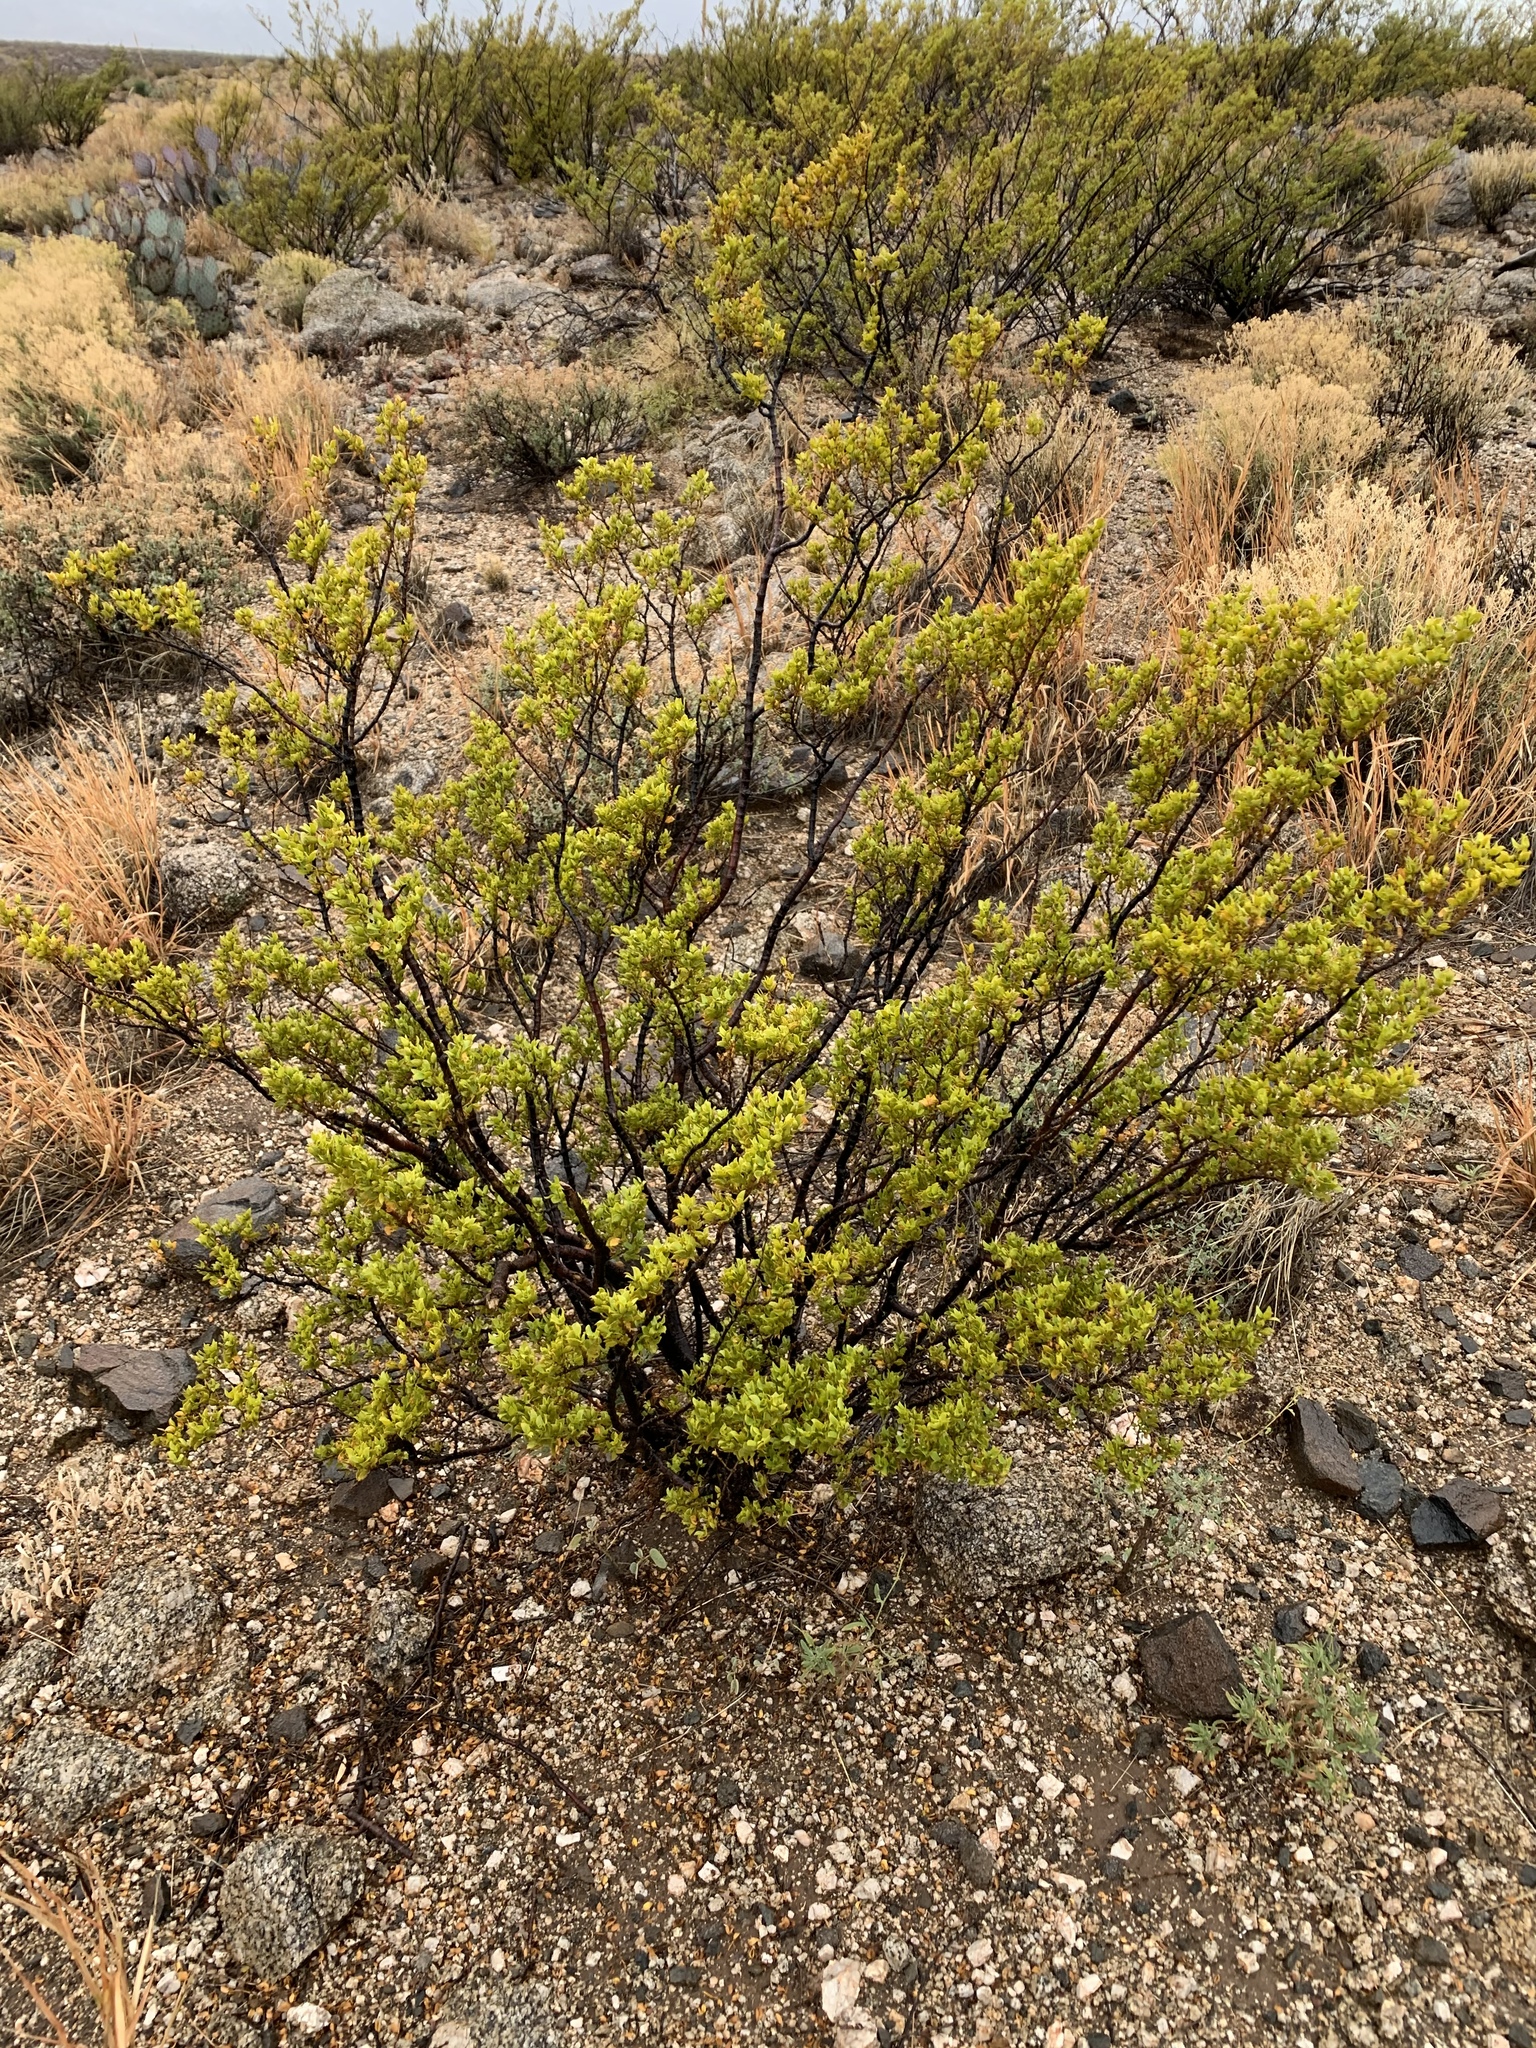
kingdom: Plantae
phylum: Tracheophyta
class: Magnoliopsida
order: Zygophyllales
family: Zygophyllaceae
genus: Larrea
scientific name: Larrea tridentata
